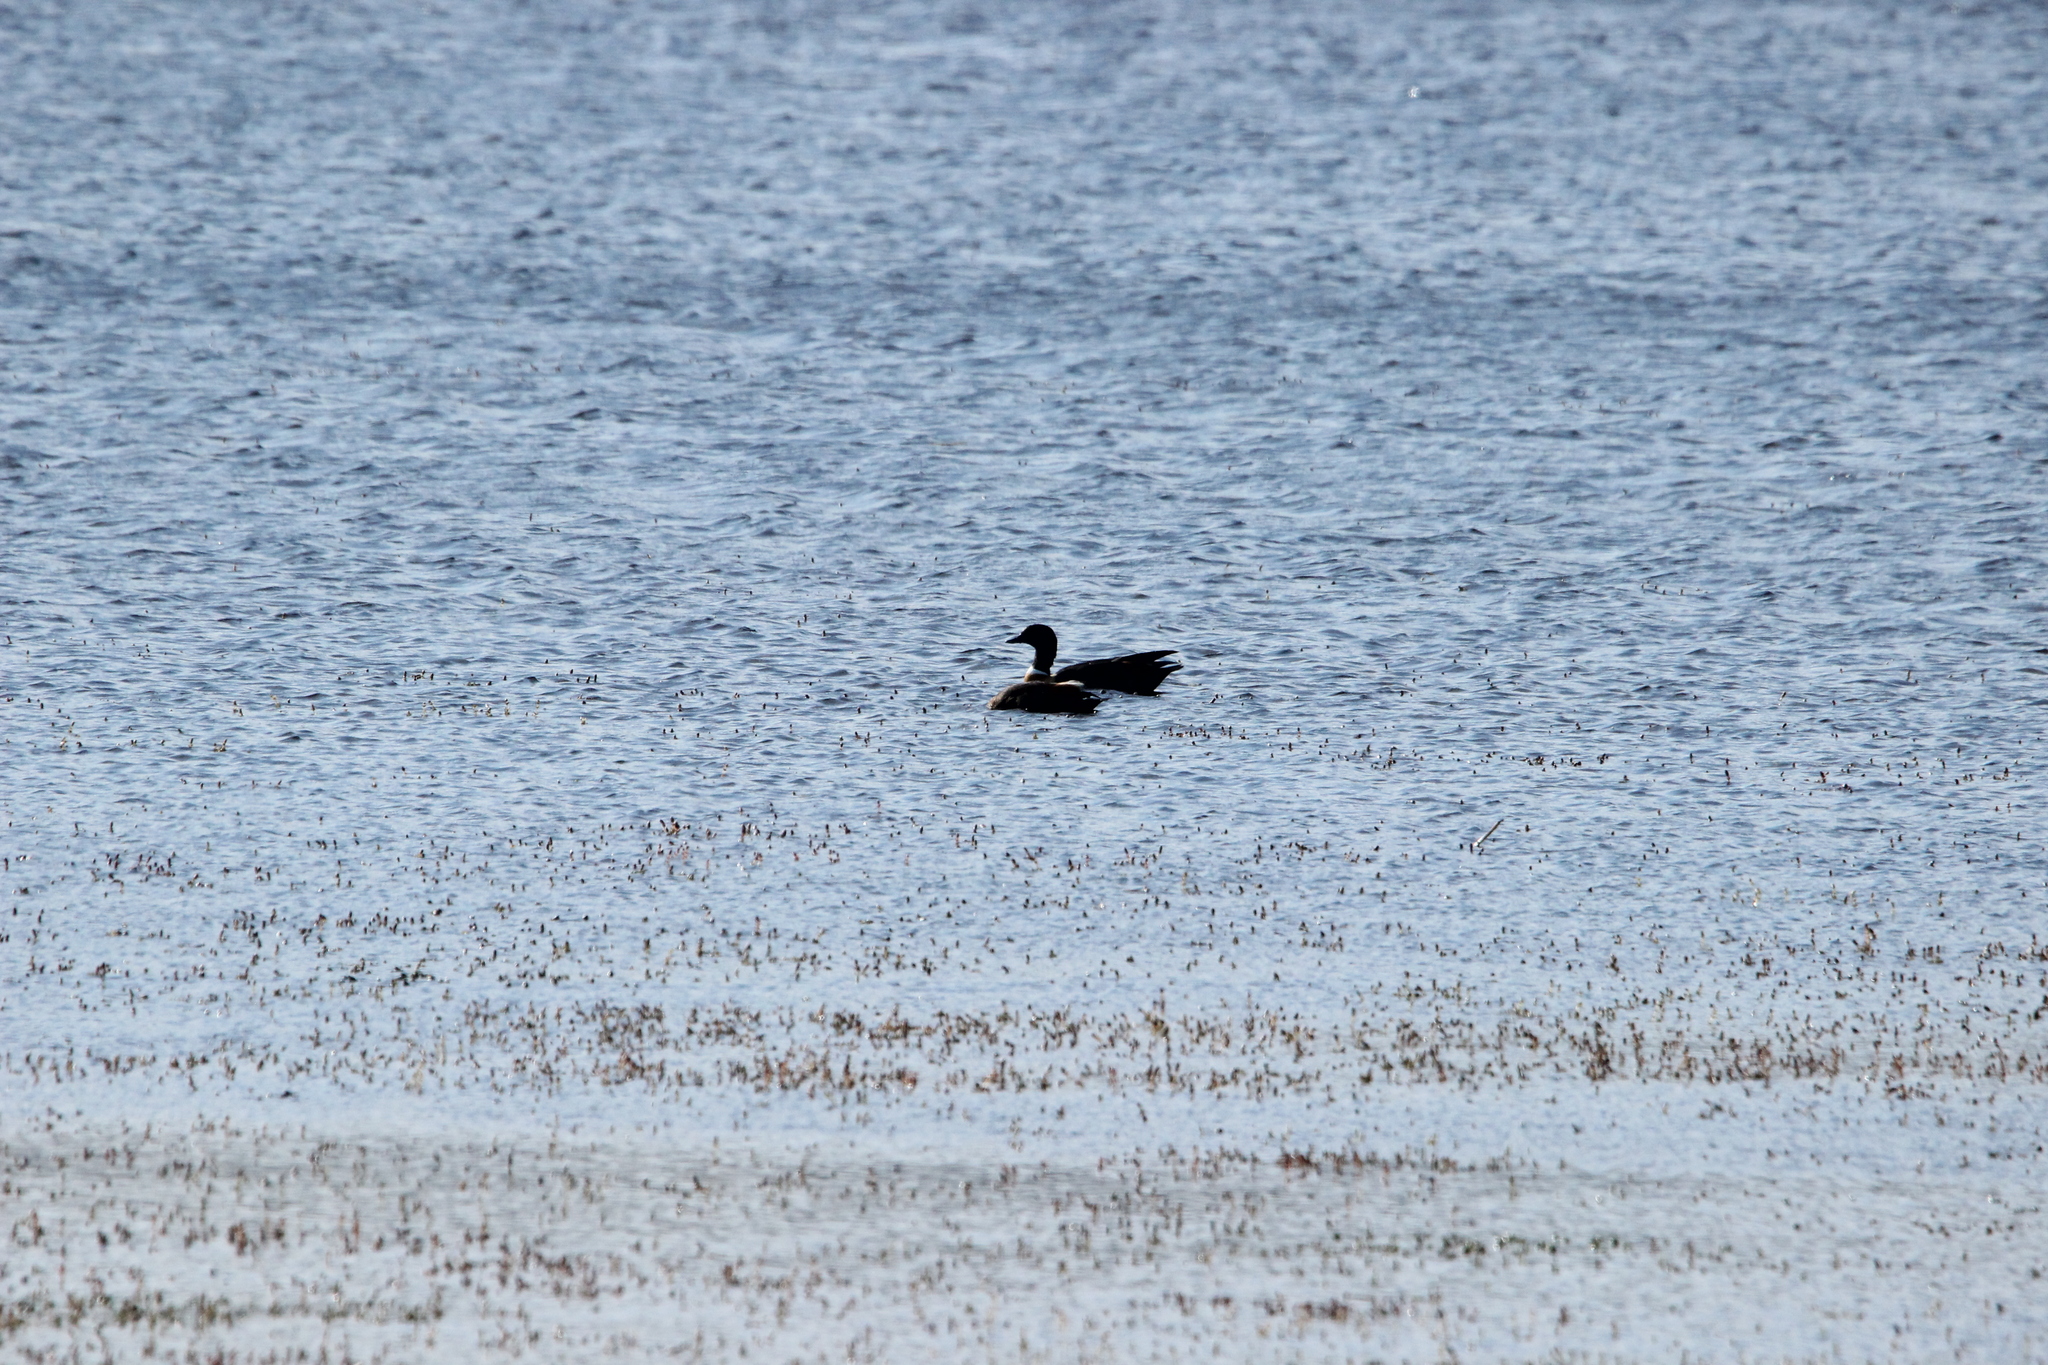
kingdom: Animalia
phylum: Chordata
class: Aves
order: Anseriformes
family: Anatidae
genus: Tadorna
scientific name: Tadorna tadornoides
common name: Australian shelduck
